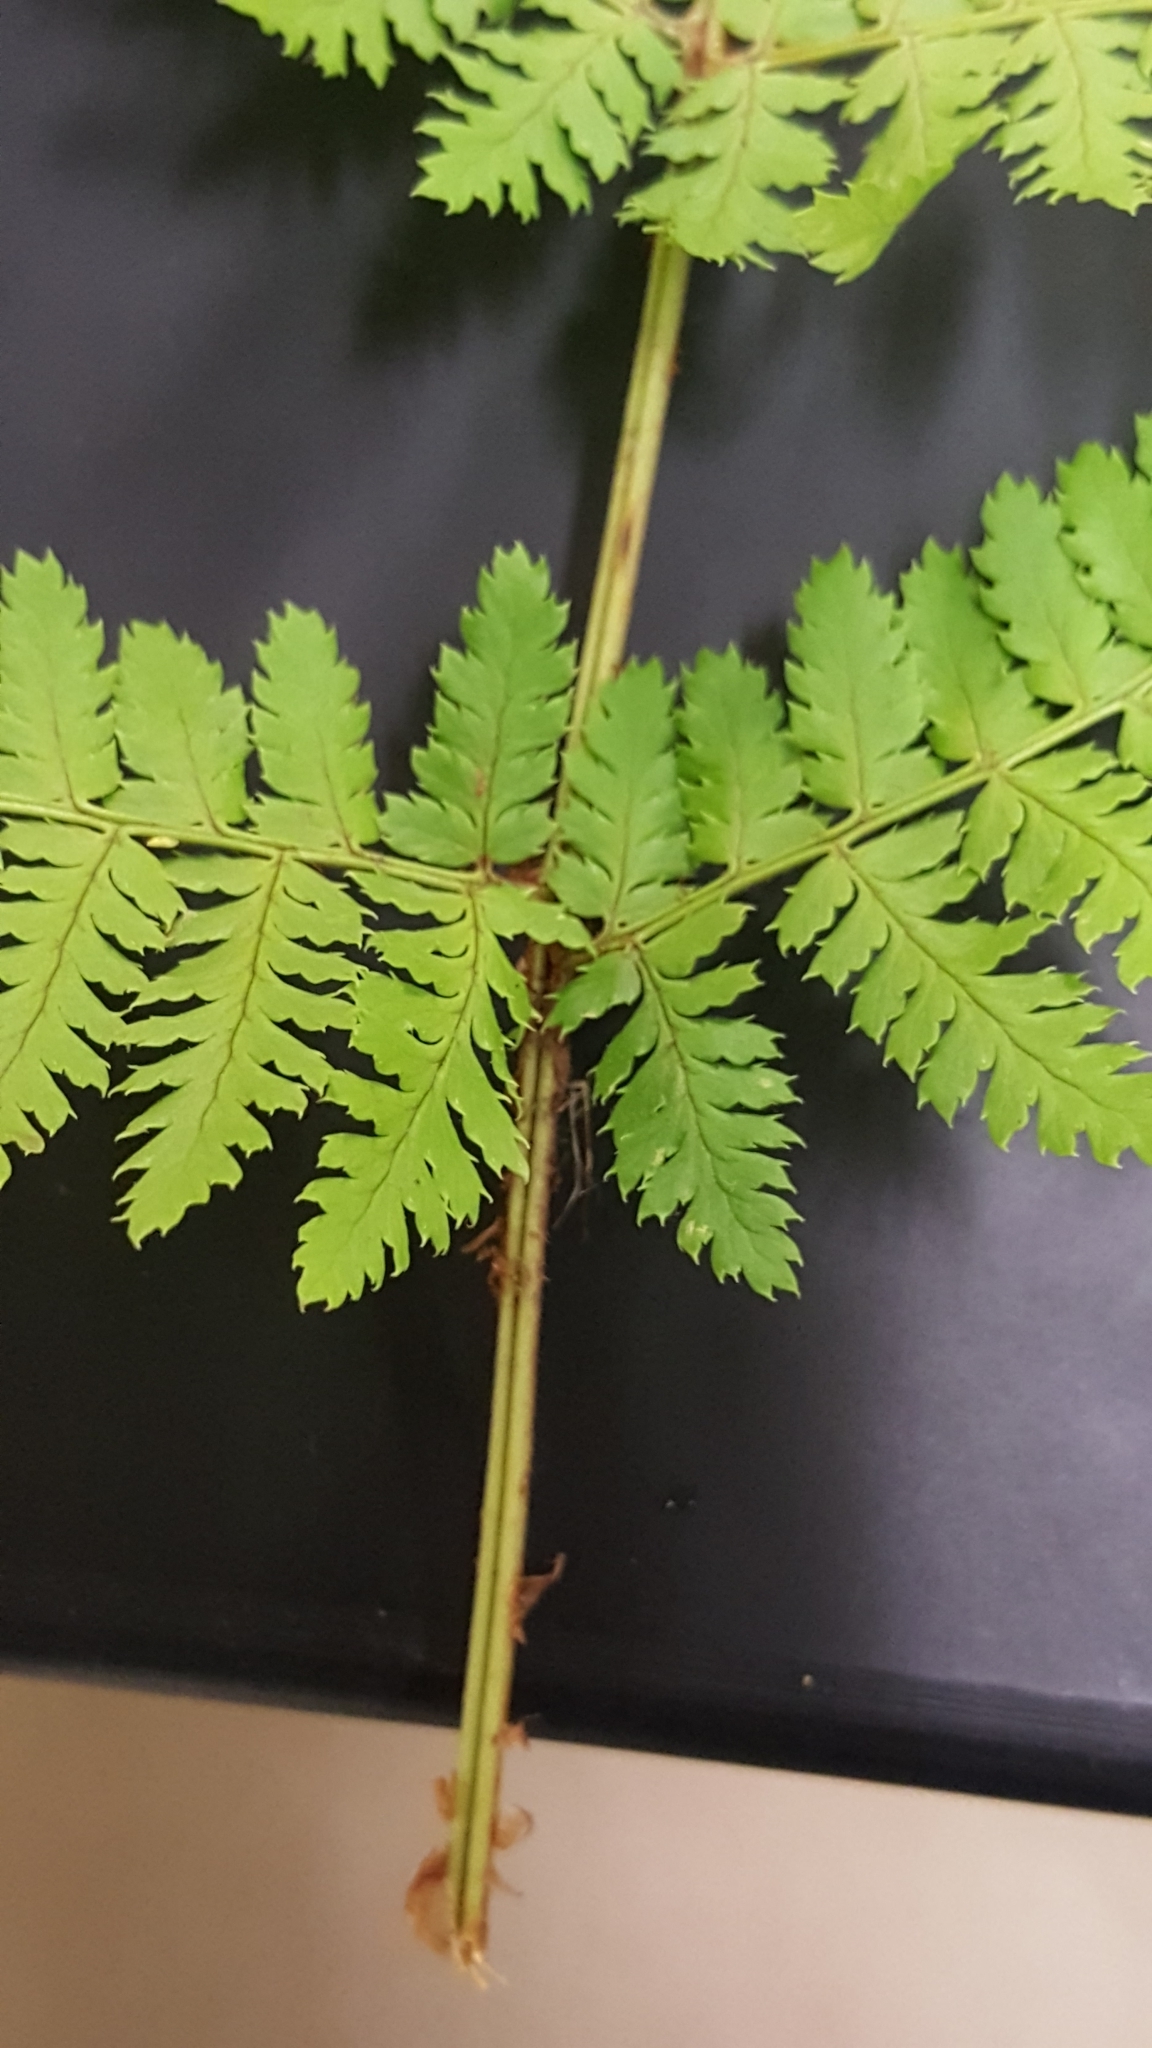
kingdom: Plantae
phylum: Tracheophyta
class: Polypodiopsida
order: Polypodiales
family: Dryopteridaceae
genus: Dryopteris
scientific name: Dryopteris campyloptera
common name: Mountain wood fern
